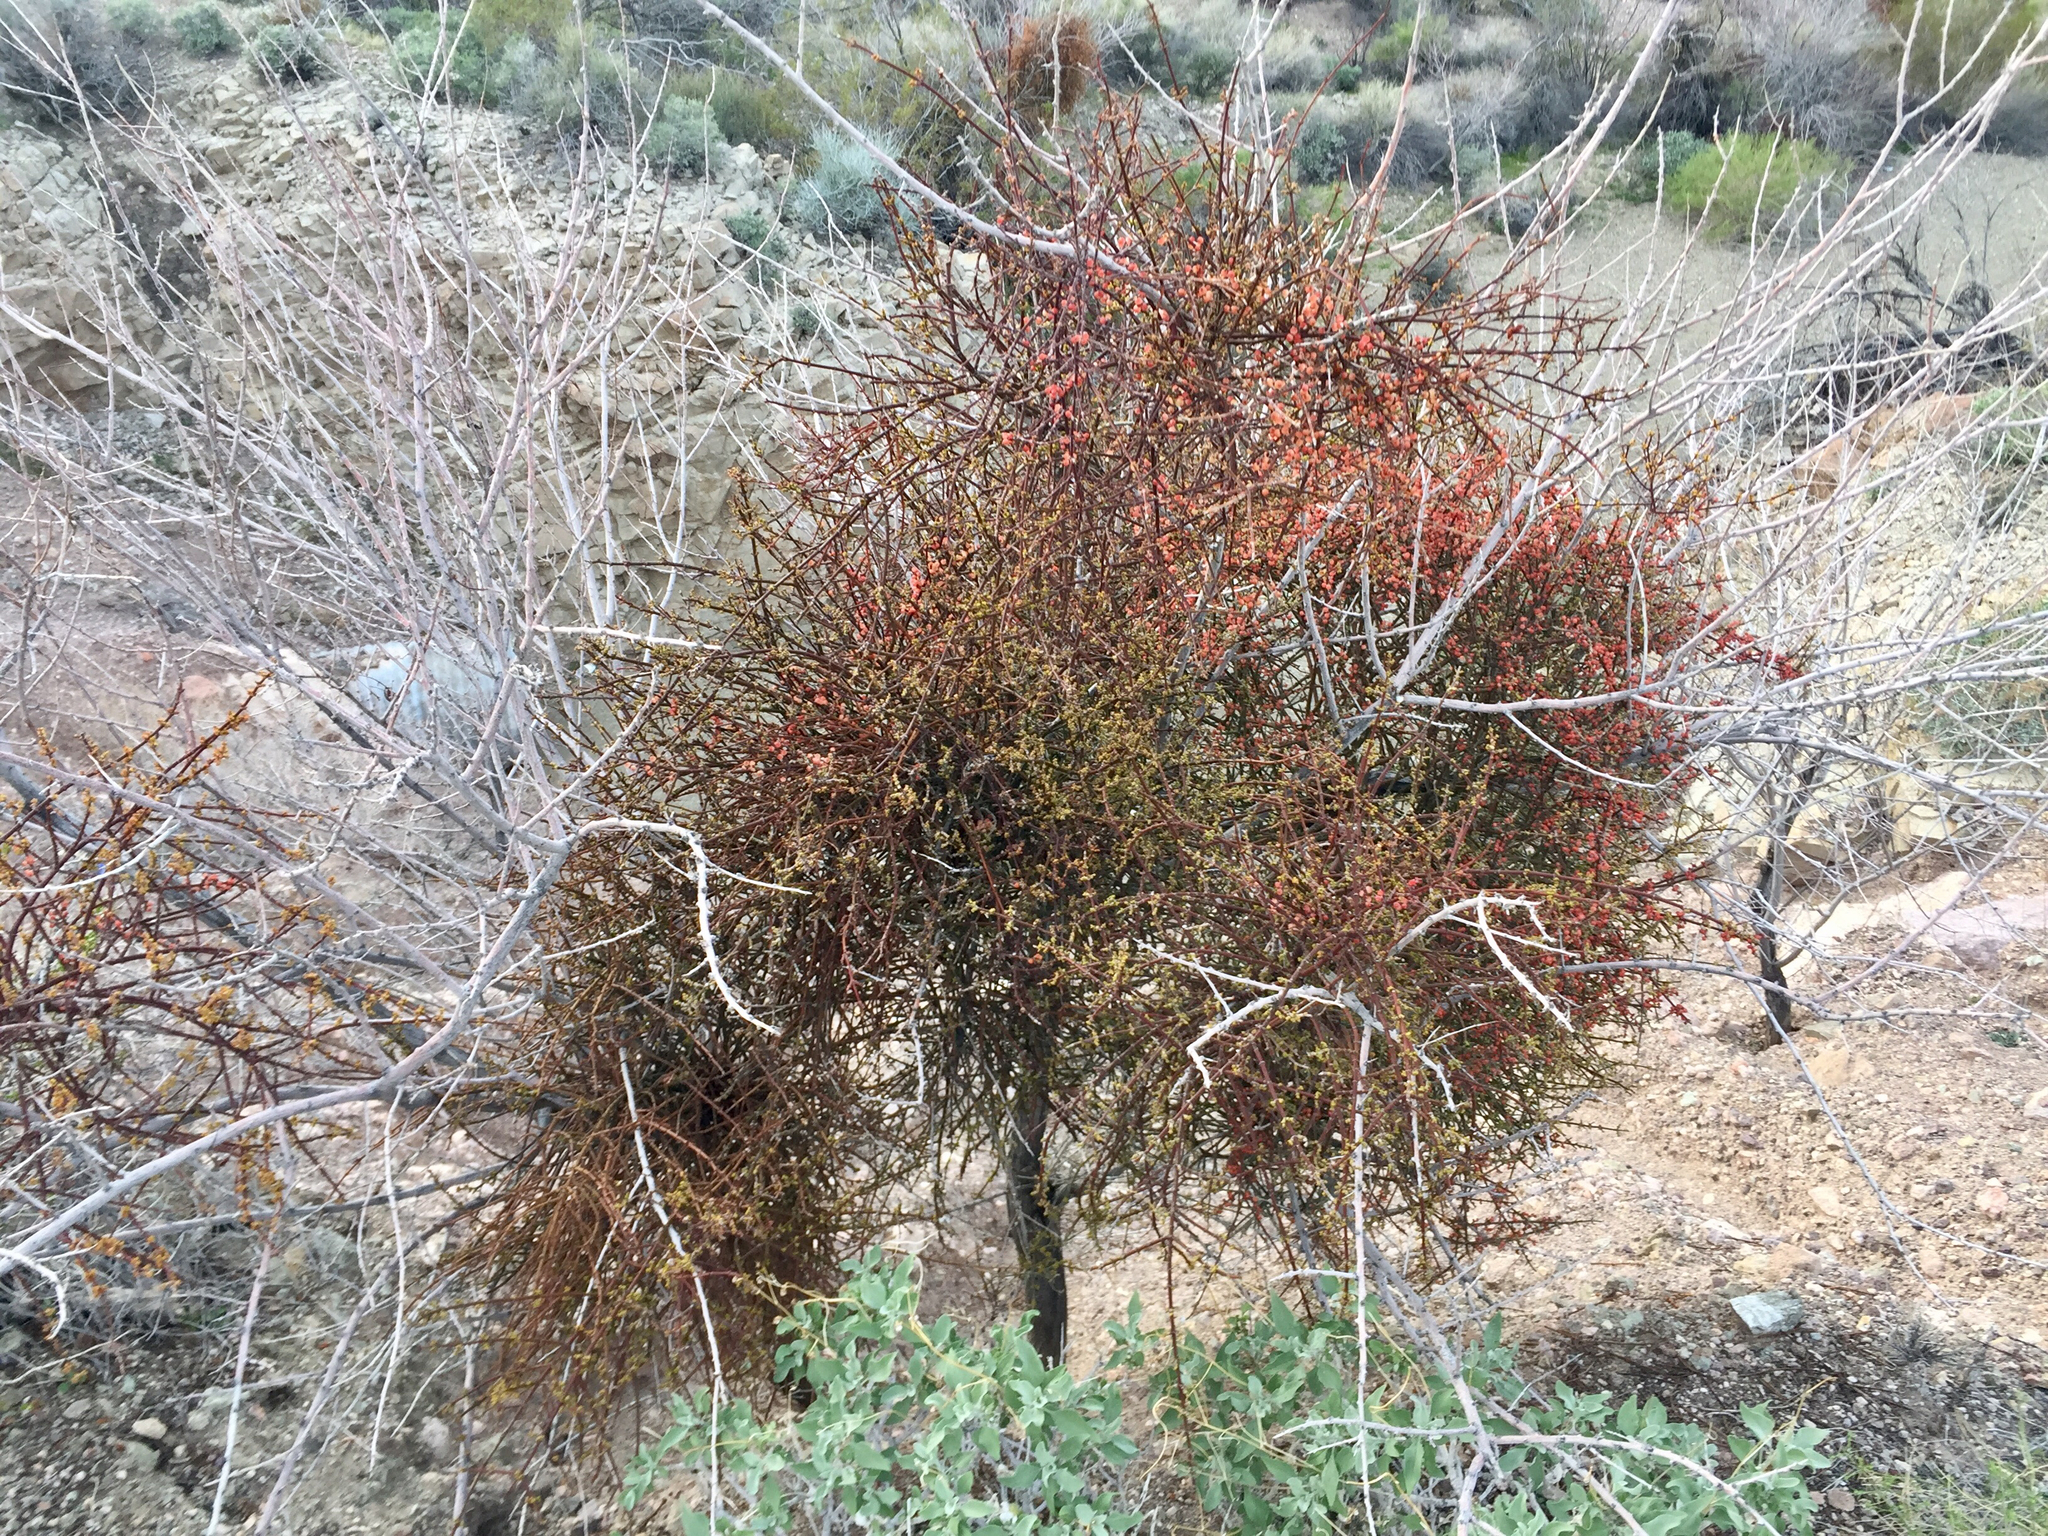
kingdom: Plantae
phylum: Tracheophyta
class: Magnoliopsida
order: Santalales
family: Viscaceae
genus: Phoradendron
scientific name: Phoradendron californicum
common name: Acacia mistletoe
